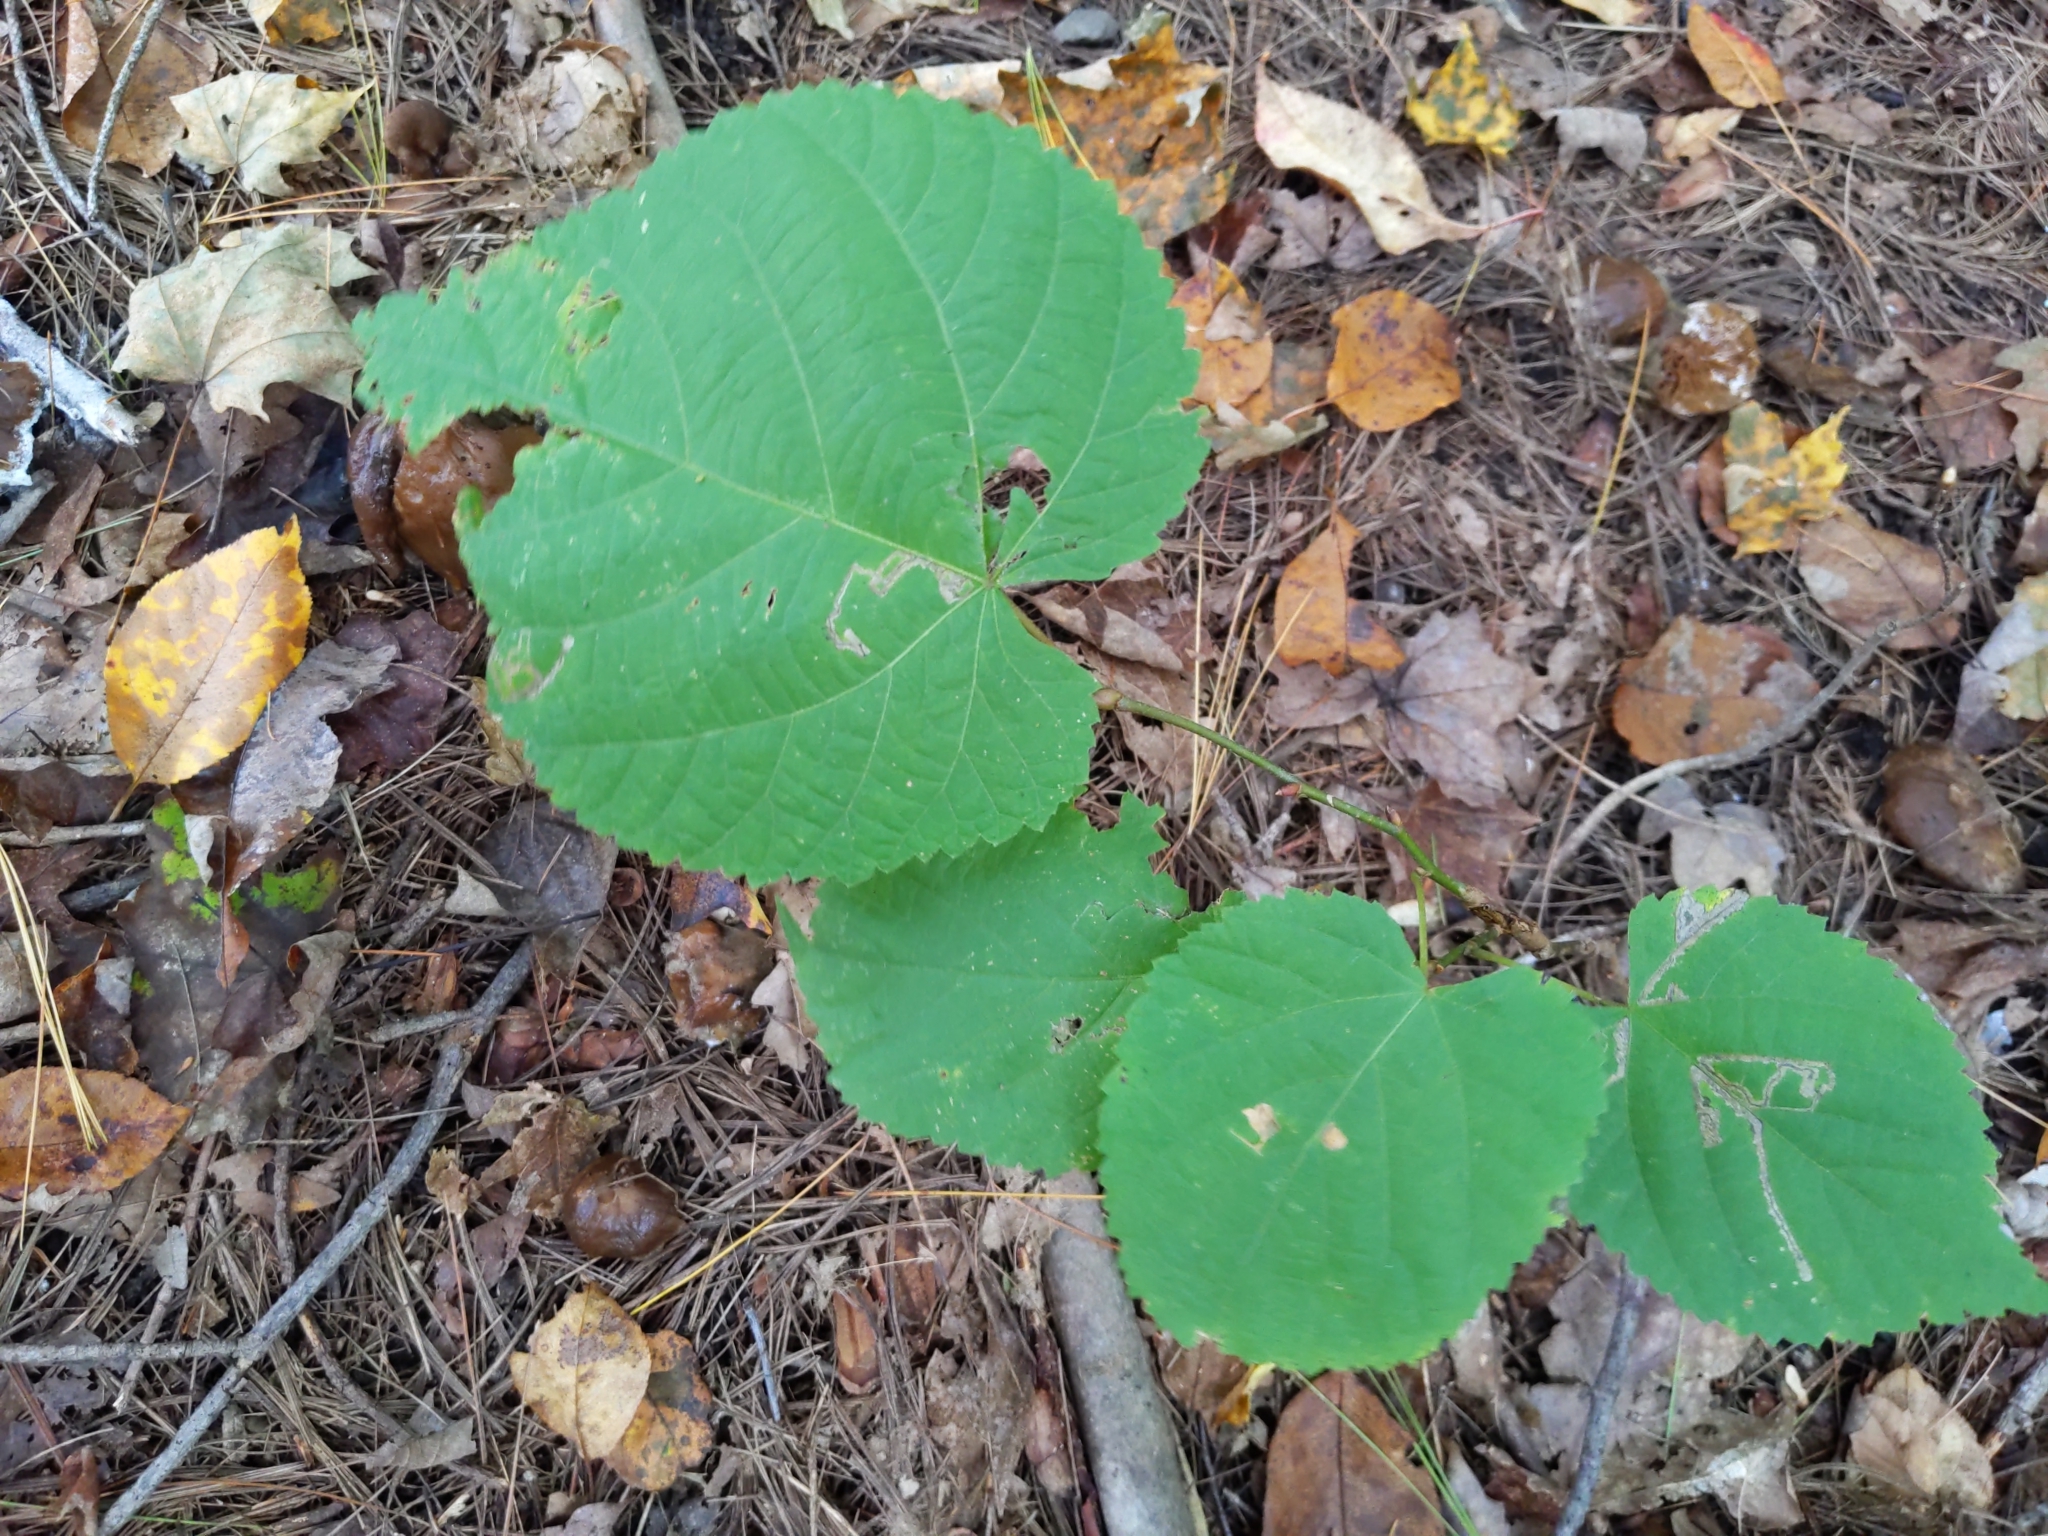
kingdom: Plantae
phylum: Tracheophyta
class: Magnoliopsida
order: Malvales
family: Malvaceae
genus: Tilia
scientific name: Tilia americana
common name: Basswood
